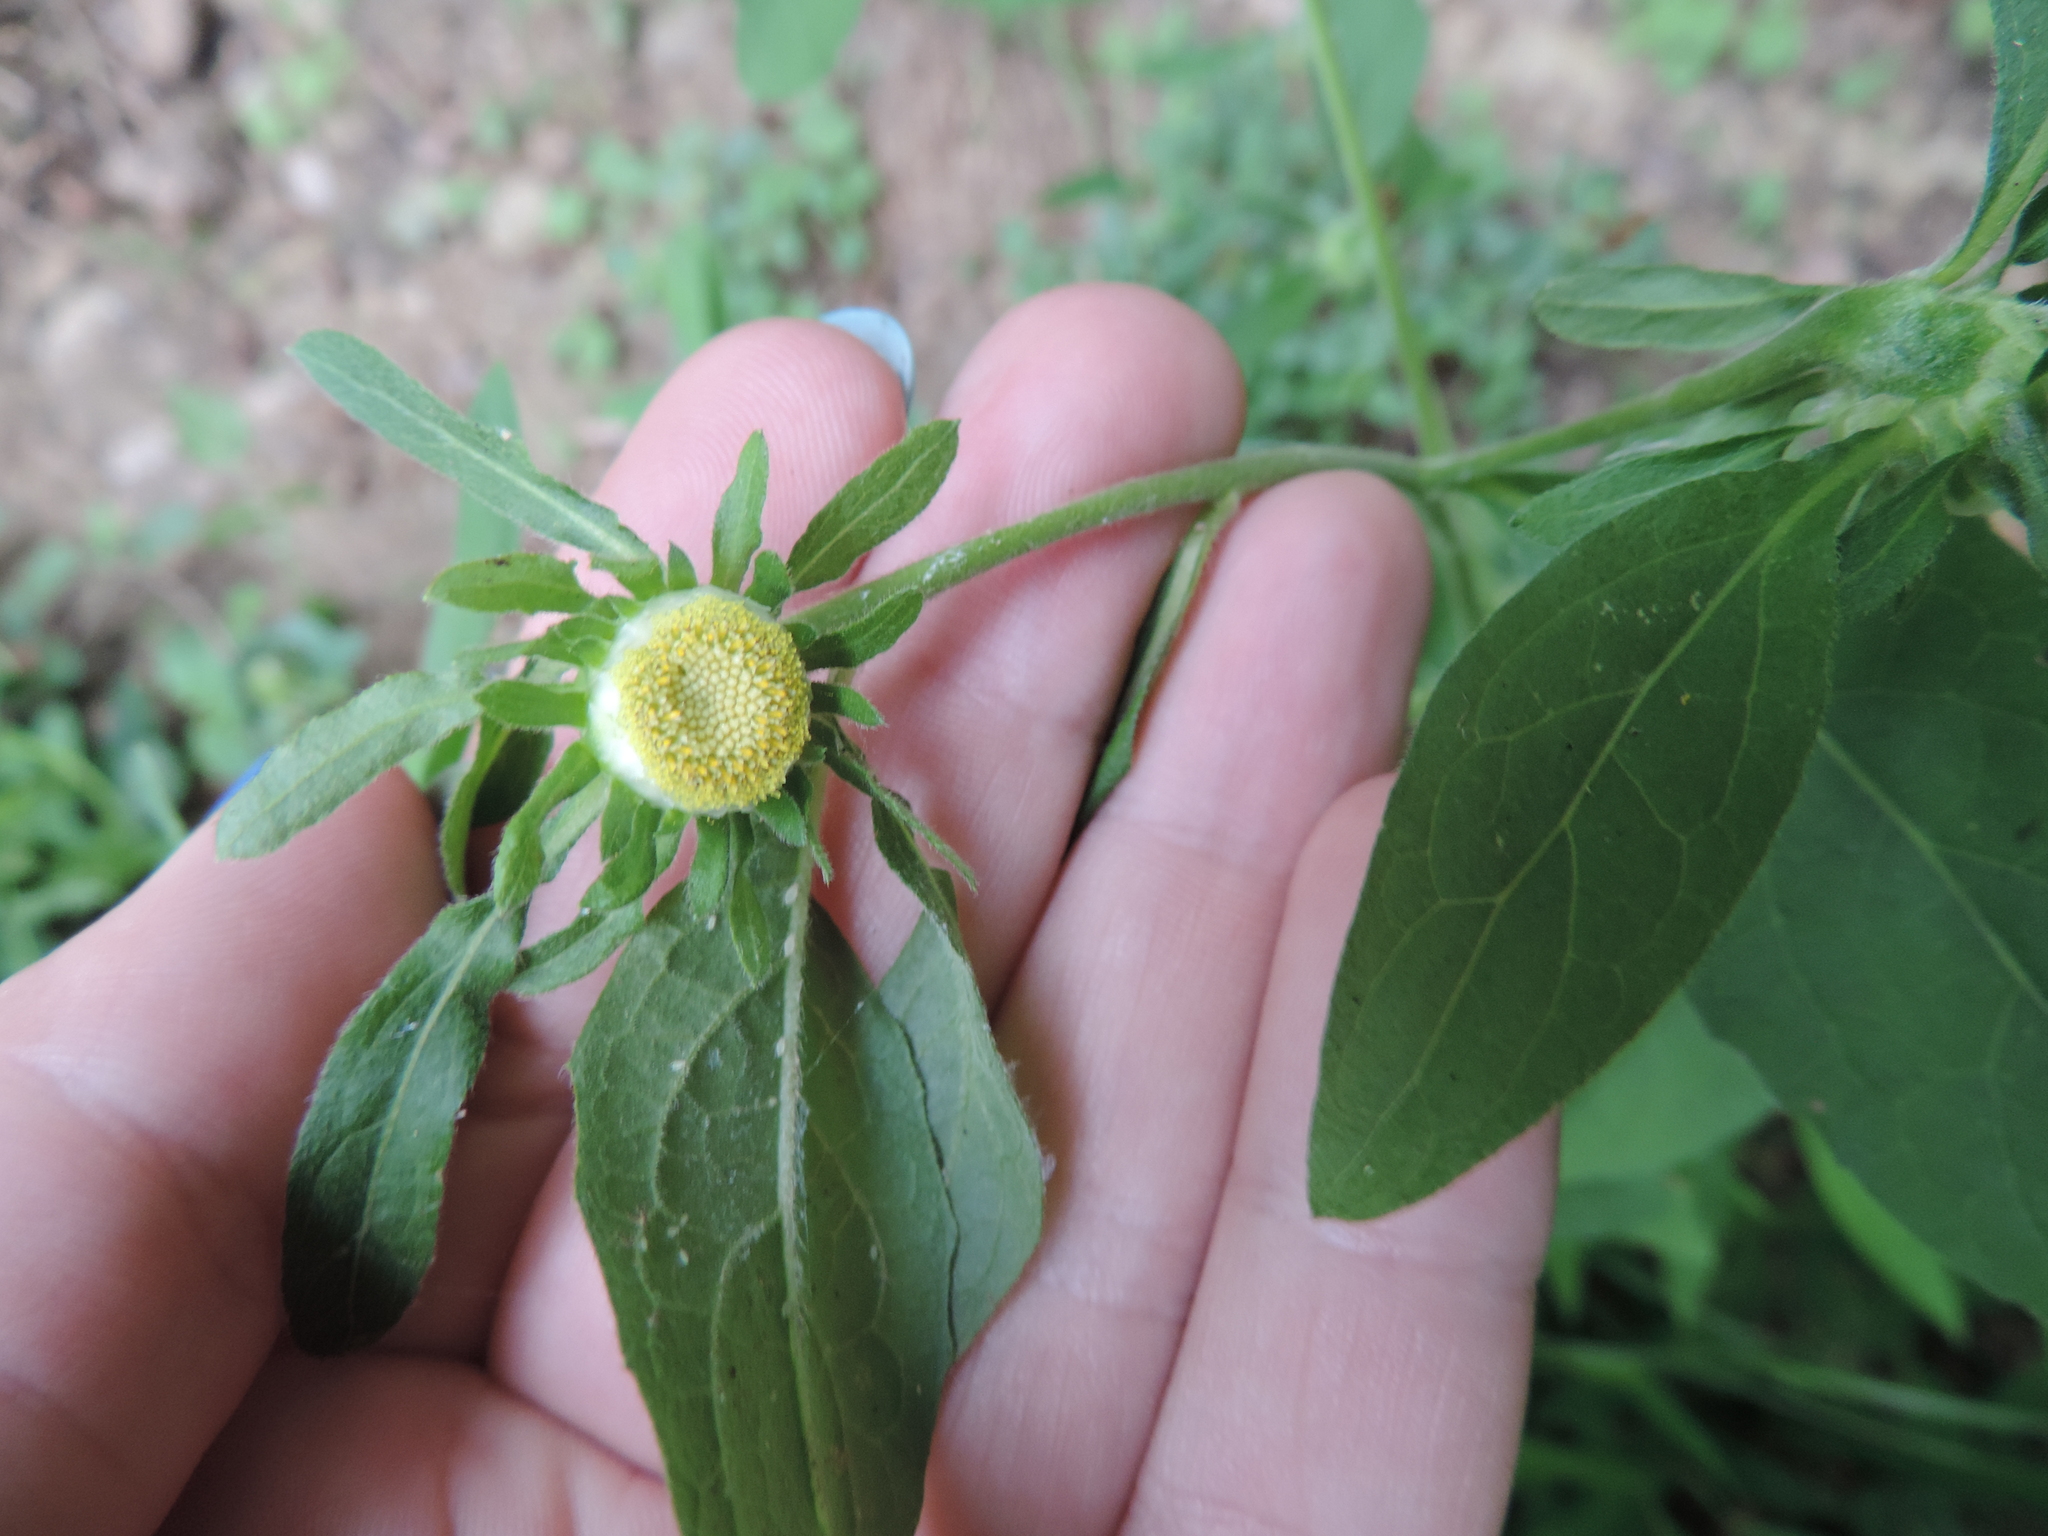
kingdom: Plantae
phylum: Tracheophyta
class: Magnoliopsida
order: Asterales
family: Asteraceae
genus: Carpesium
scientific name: Carpesium cernuum
